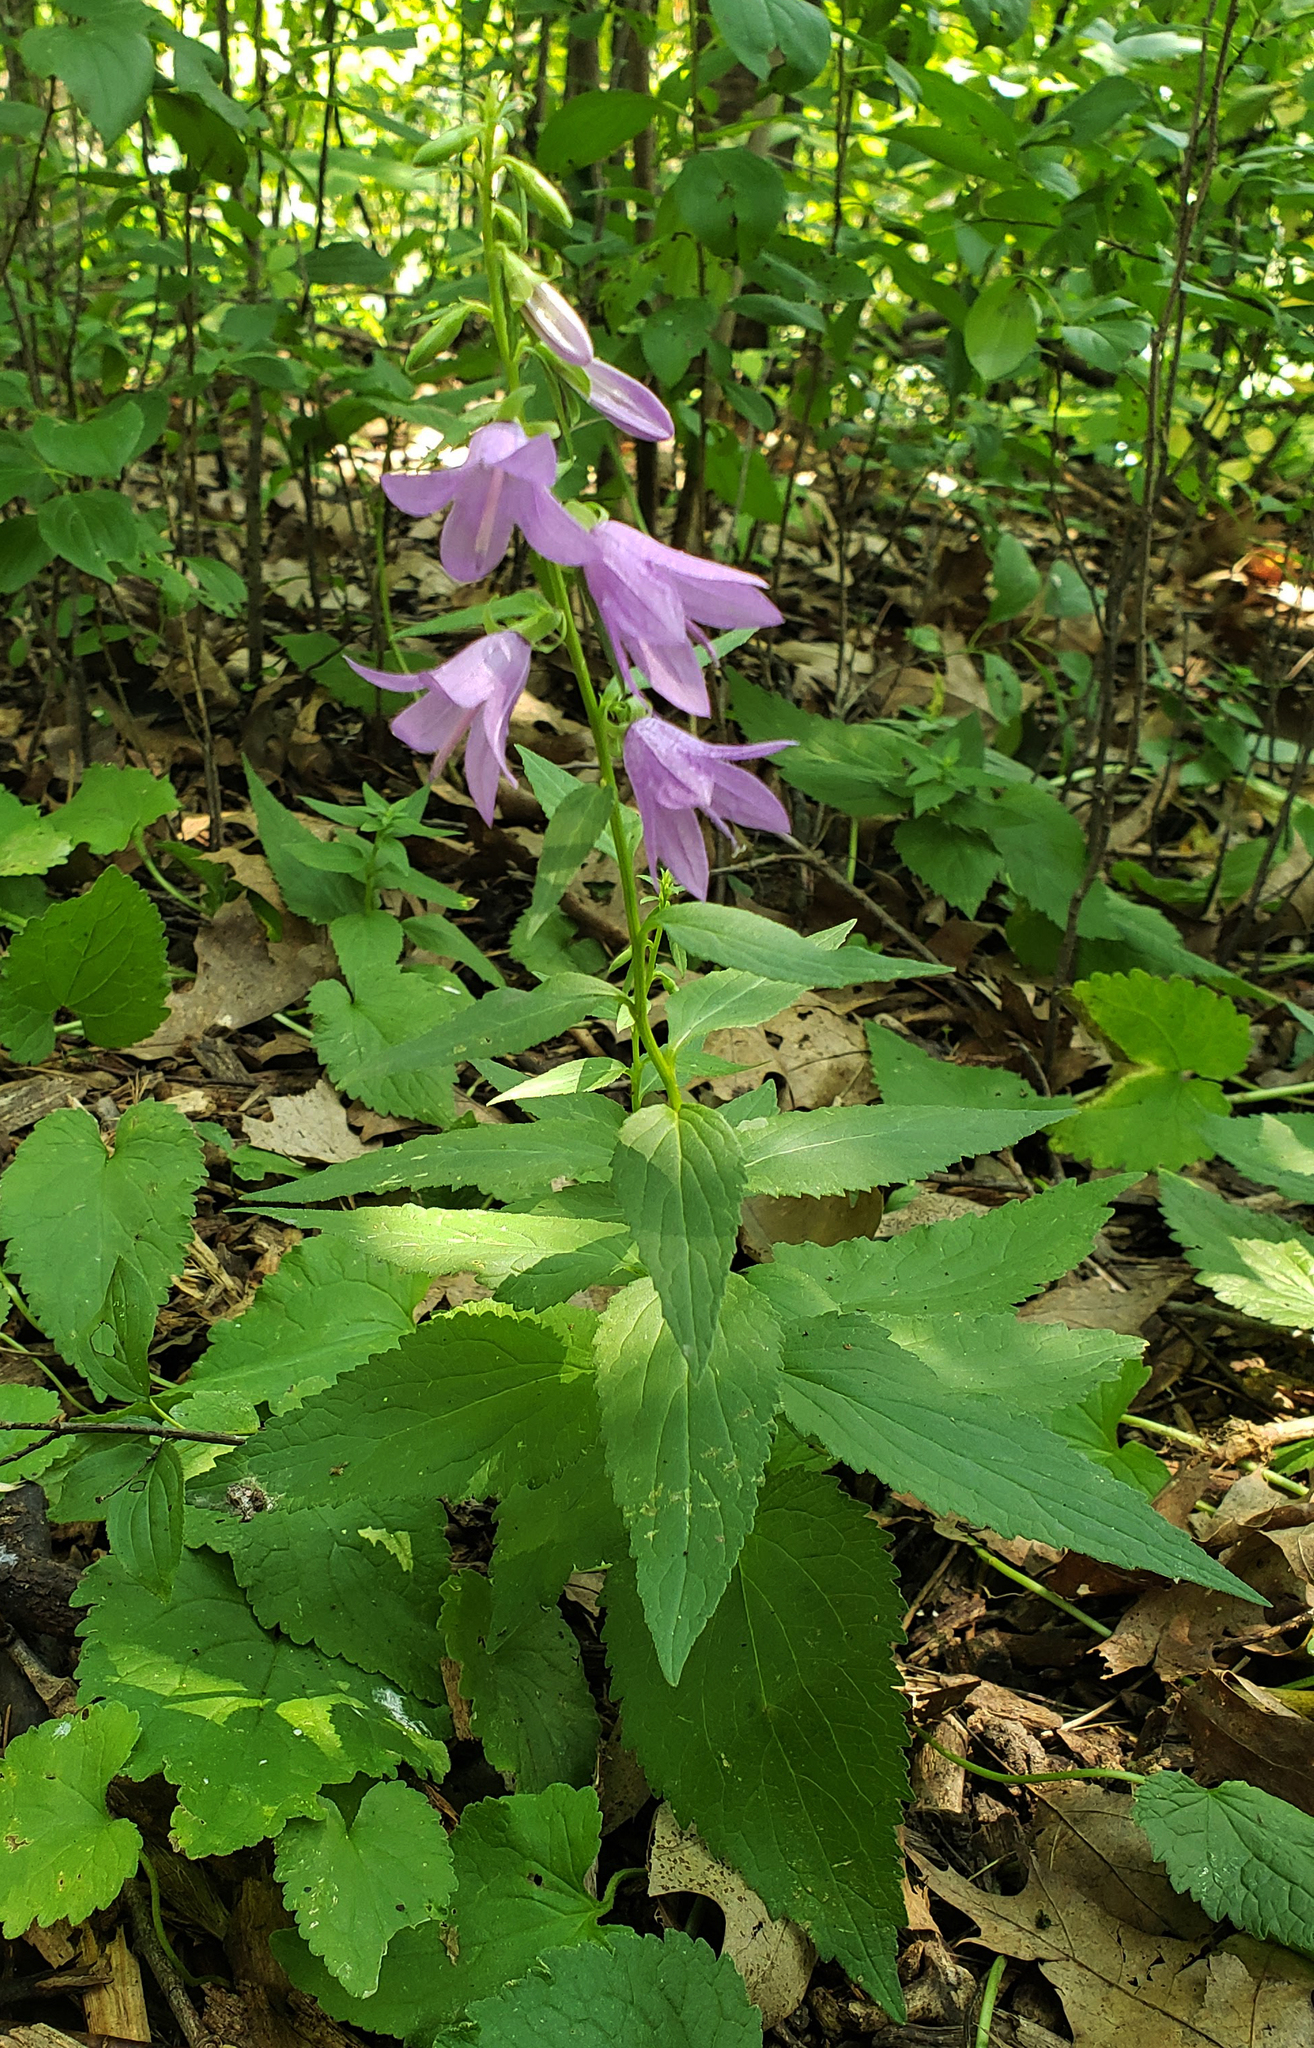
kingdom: Plantae
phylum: Tracheophyta
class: Magnoliopsida
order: Asterales
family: Campanulaceae
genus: Campanula
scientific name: Campanula rapunculoides
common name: Creeping bellflower
